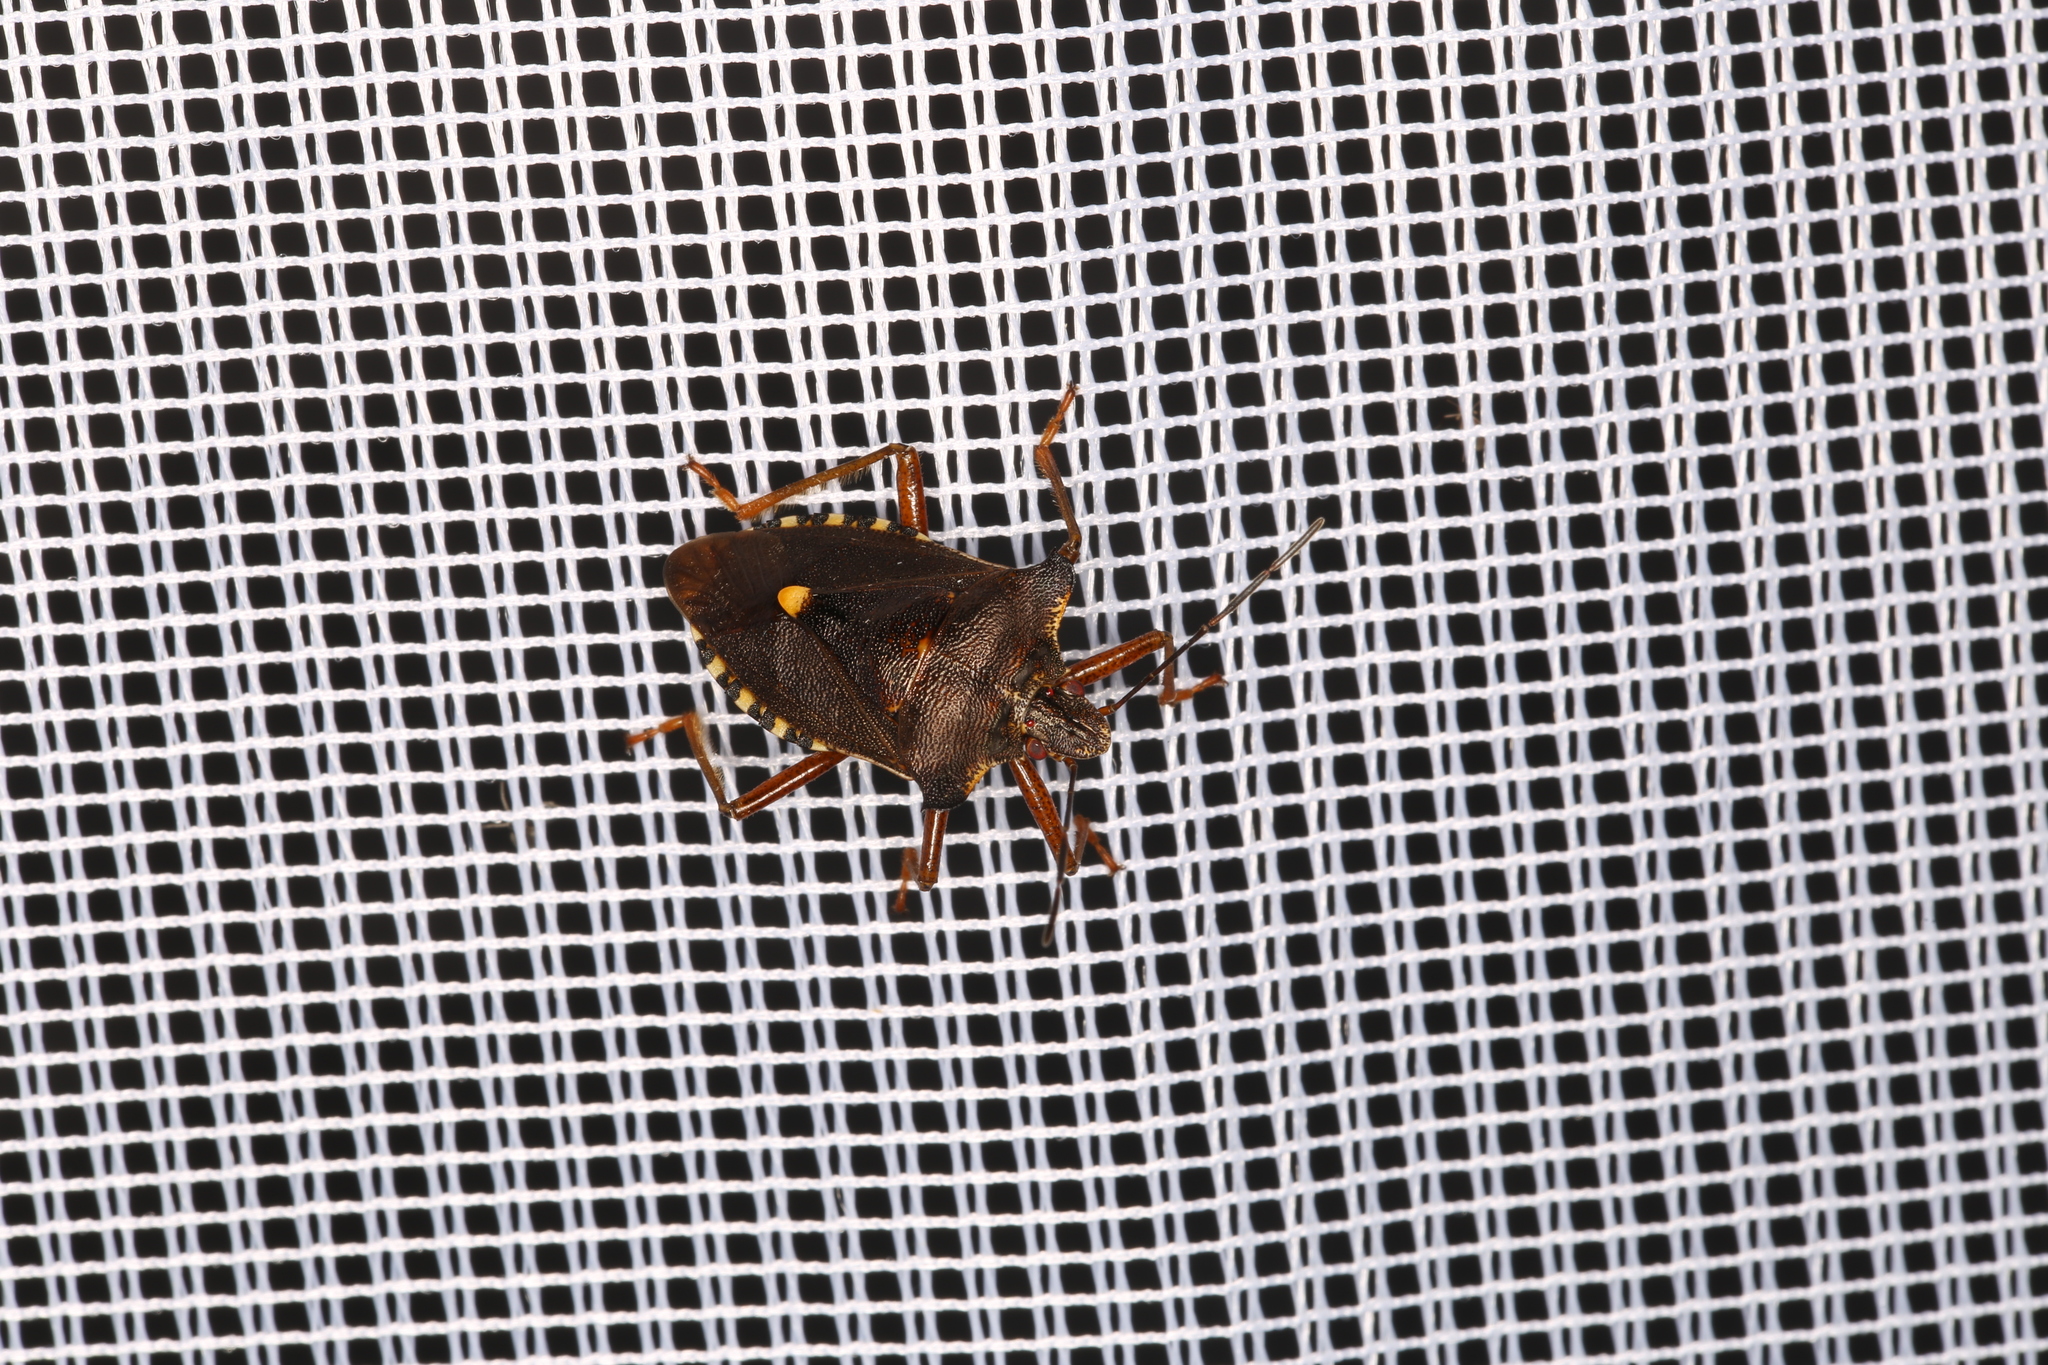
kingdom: Animalia
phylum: Arthropoda
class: Insecta
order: Hemiptera
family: Pentatomidae
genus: Pentatoma
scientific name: Pentatoma rufipes
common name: Forest bug
